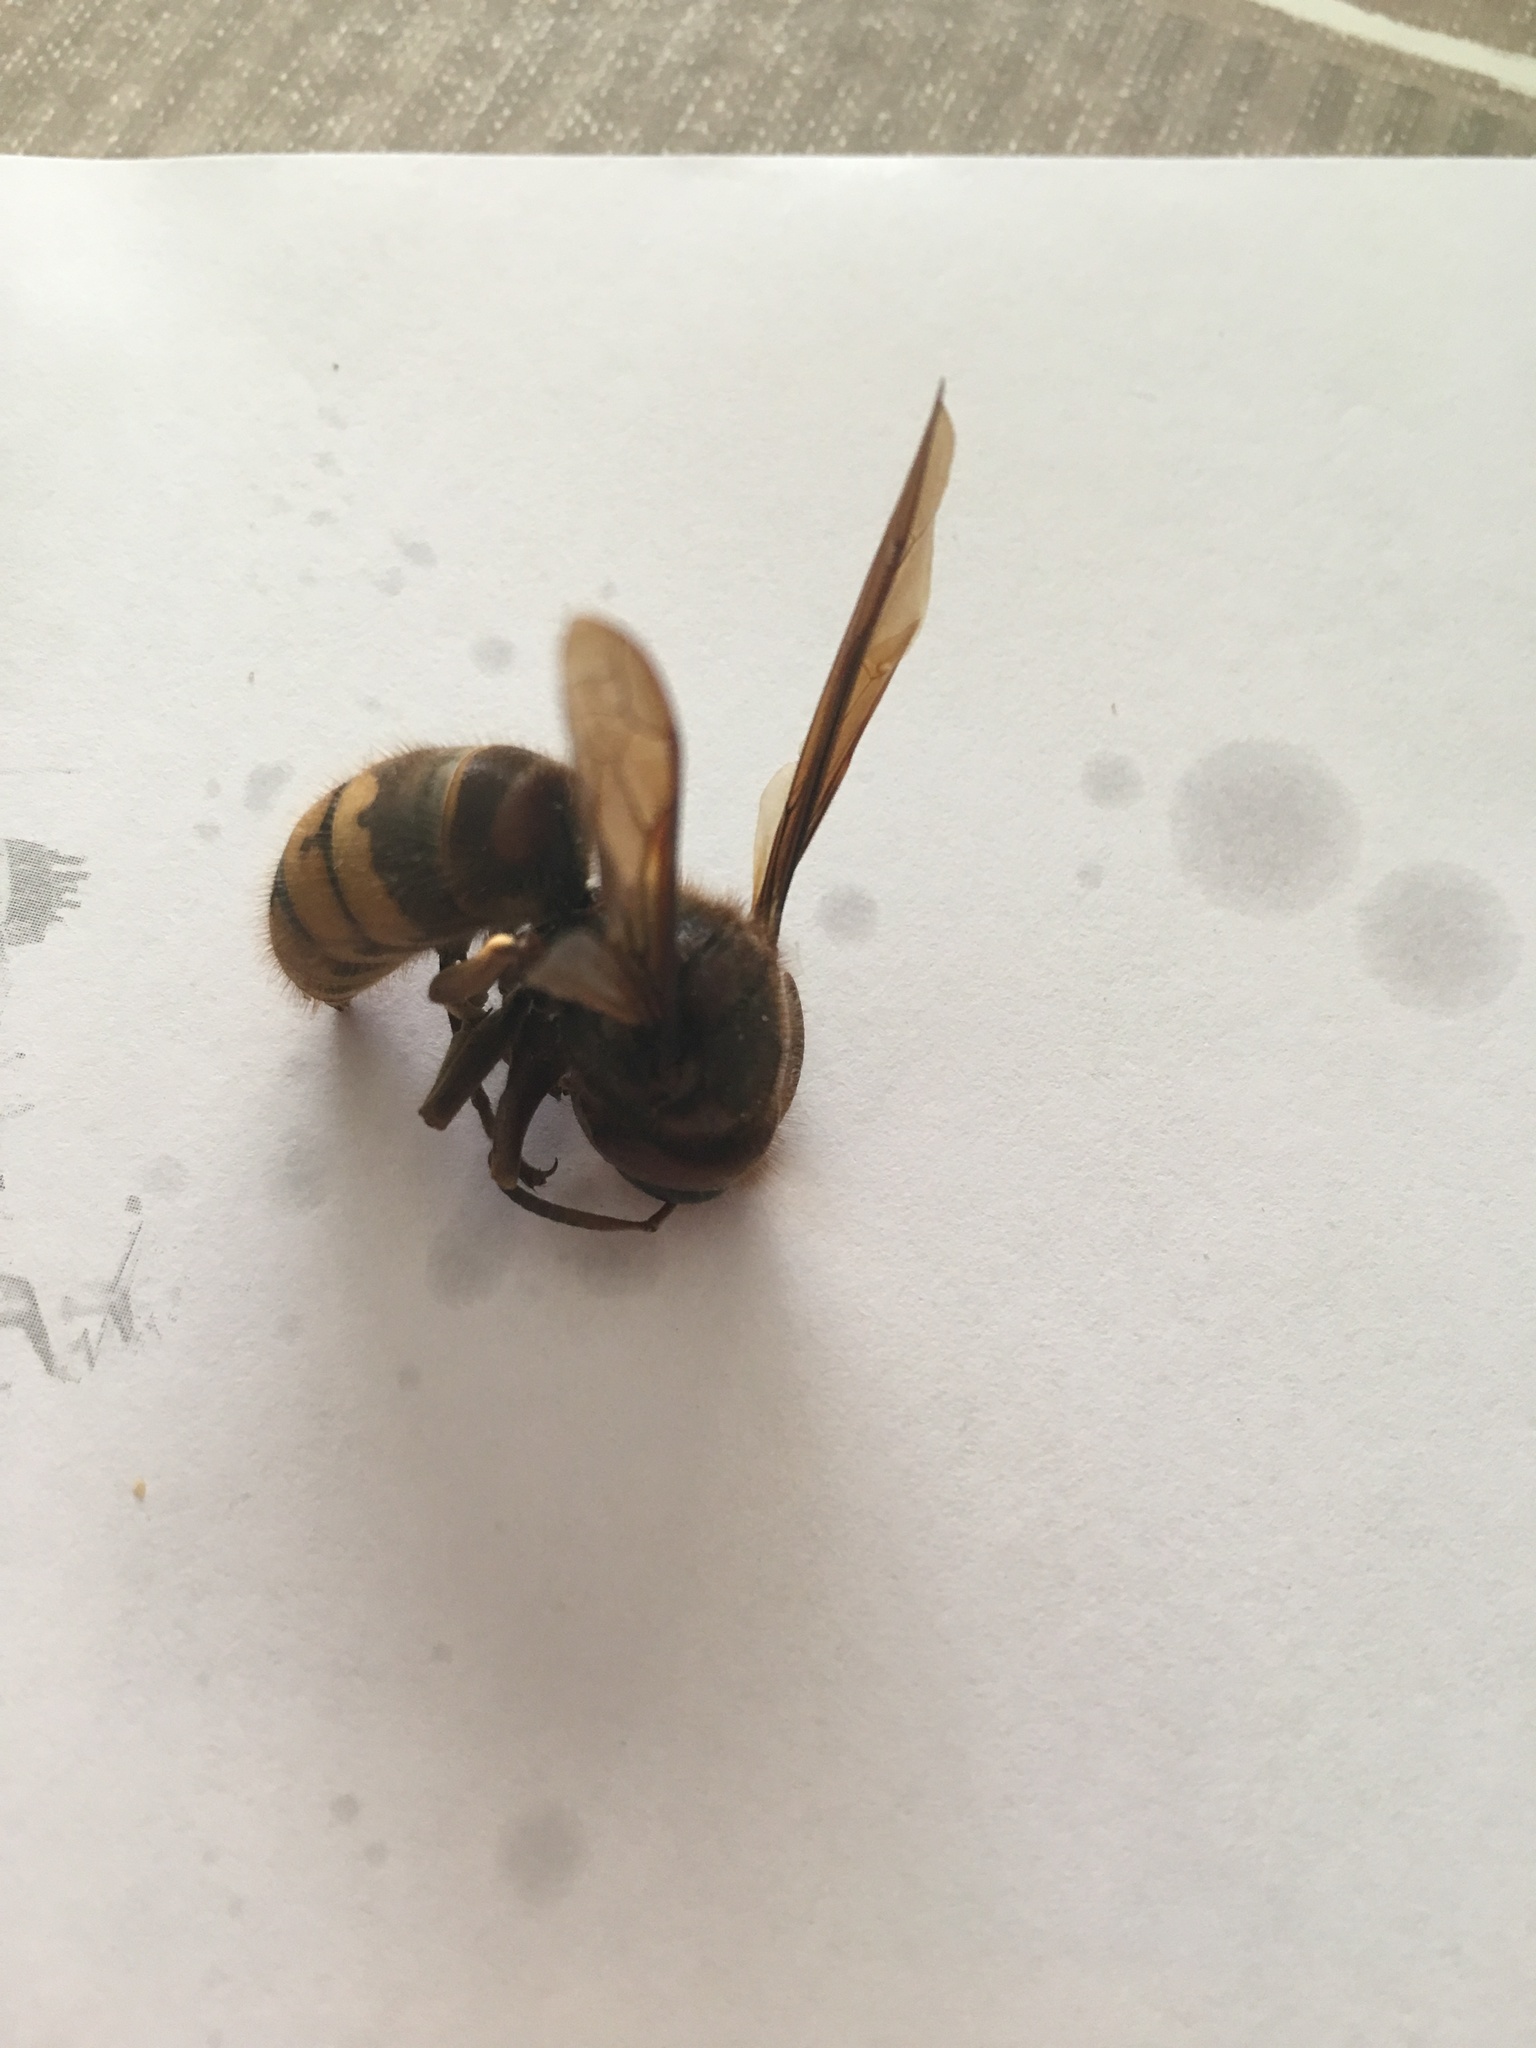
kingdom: Animalia
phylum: Arthropoda
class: Insecta
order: Hymenoptera
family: Vespidae
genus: Vespa
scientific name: Vespa crabro
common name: Hornet
